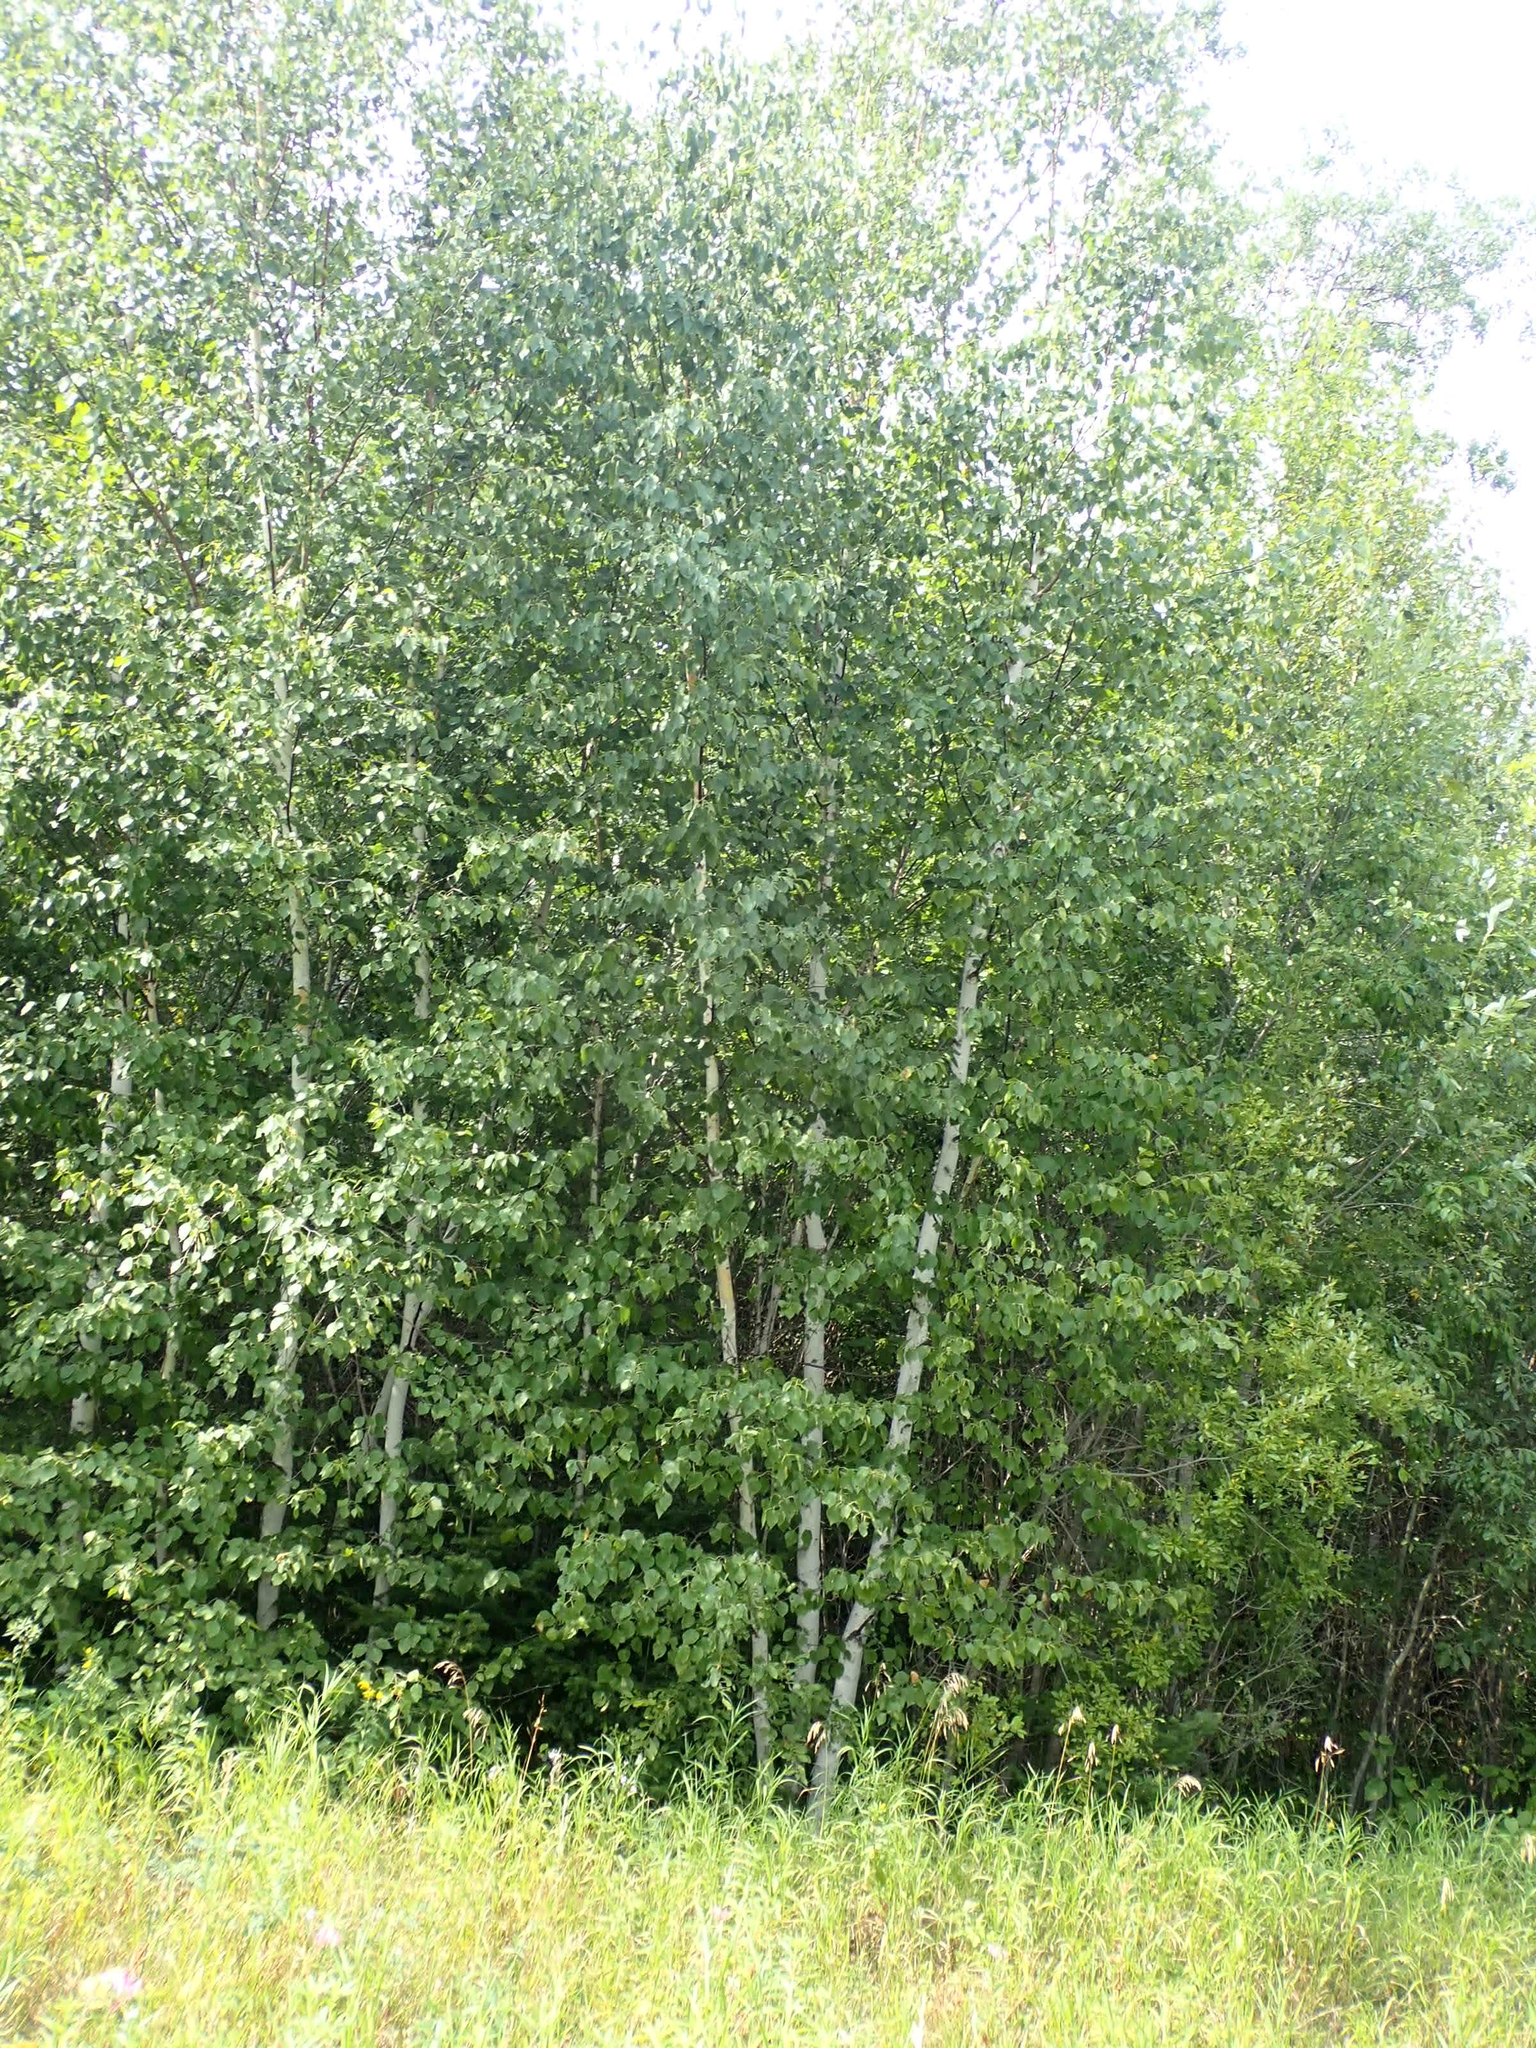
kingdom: Plantae
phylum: Tracheophyta
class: Magnoliopsida
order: Fagales
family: Betulaceae
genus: Betula
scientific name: Betula papyrifera
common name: Paper birch
